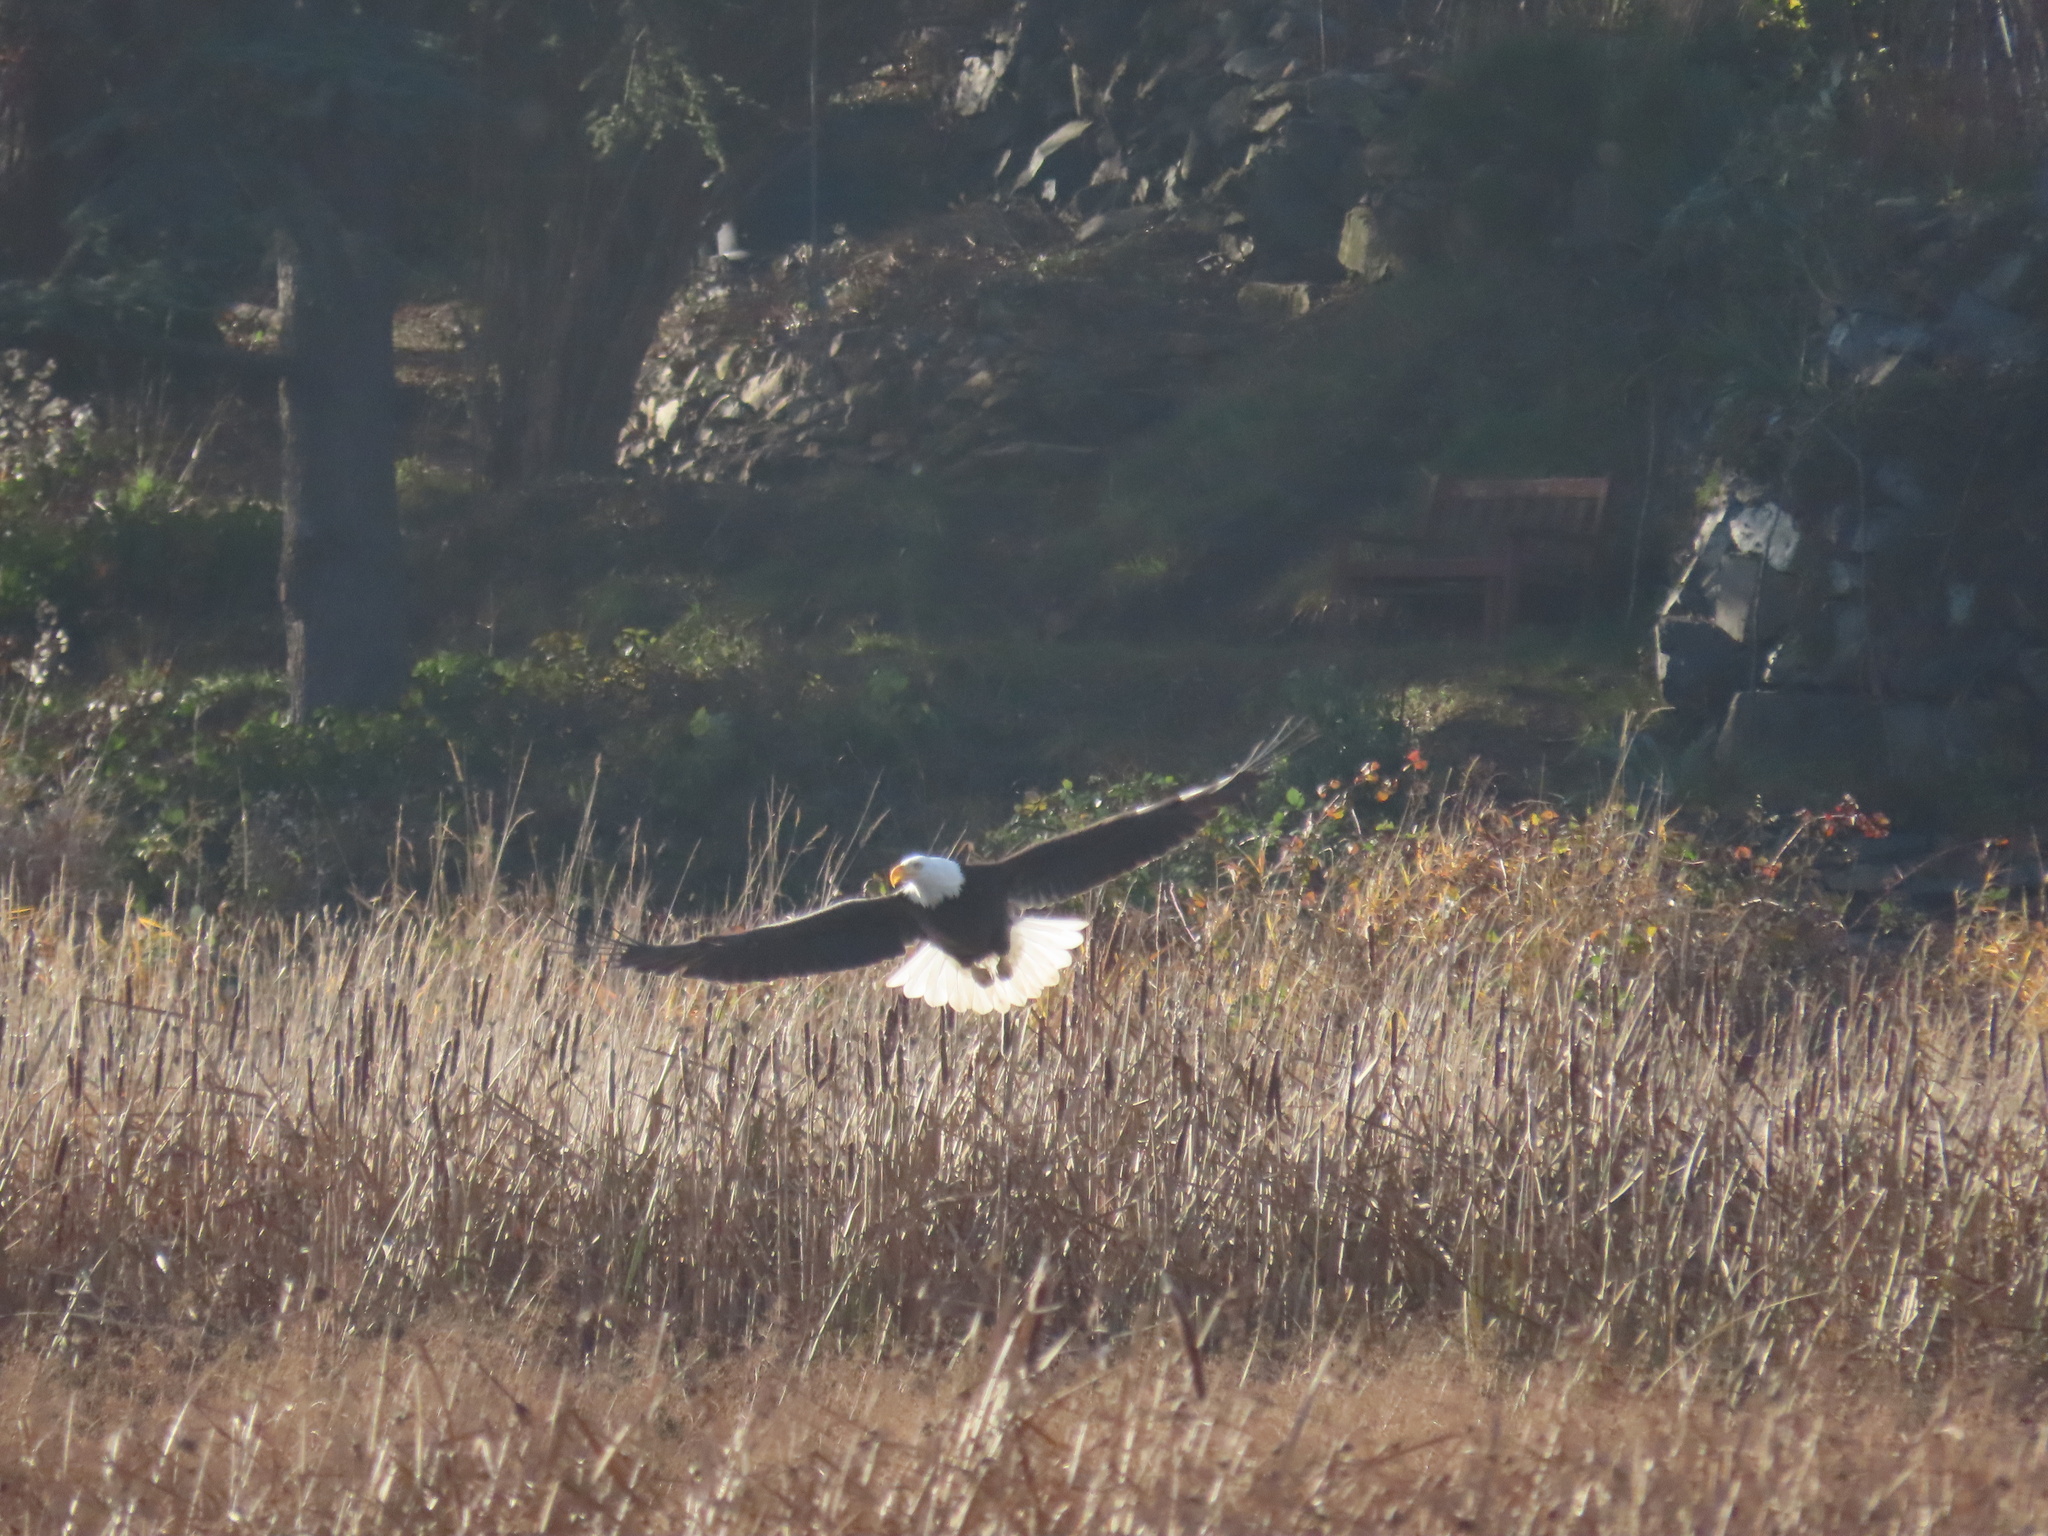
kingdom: Animalia
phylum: Chordata
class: Aves
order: Accipitriformes
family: Accipitridae
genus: Haliaeetus
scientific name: Haliaeetus leucocephalus
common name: Bald eagle
